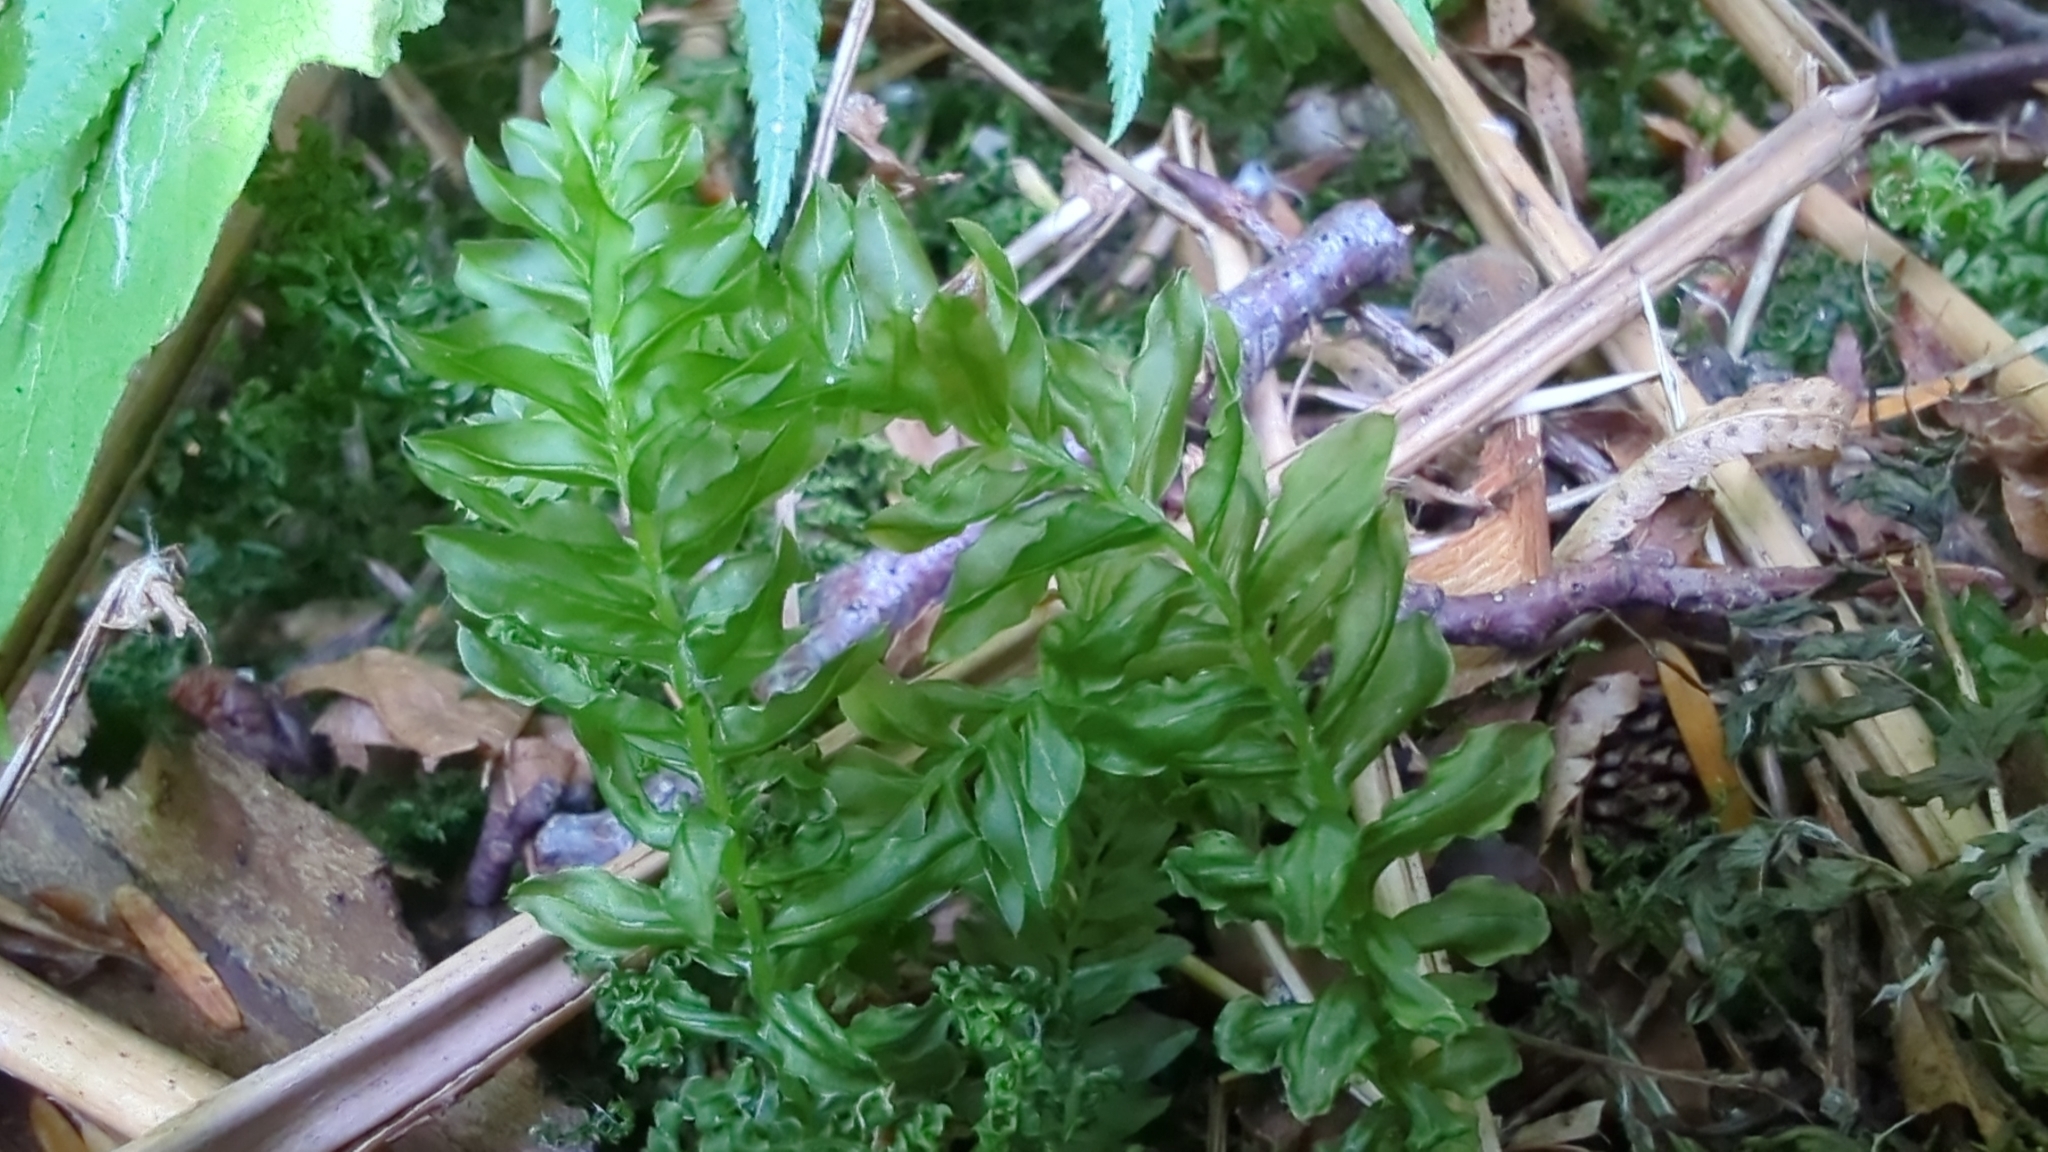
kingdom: Plantae
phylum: Bryophyta
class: Bryopsida
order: Bryales
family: Mniaceae
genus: Plagiomnium
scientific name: Plagiomnium insigne
